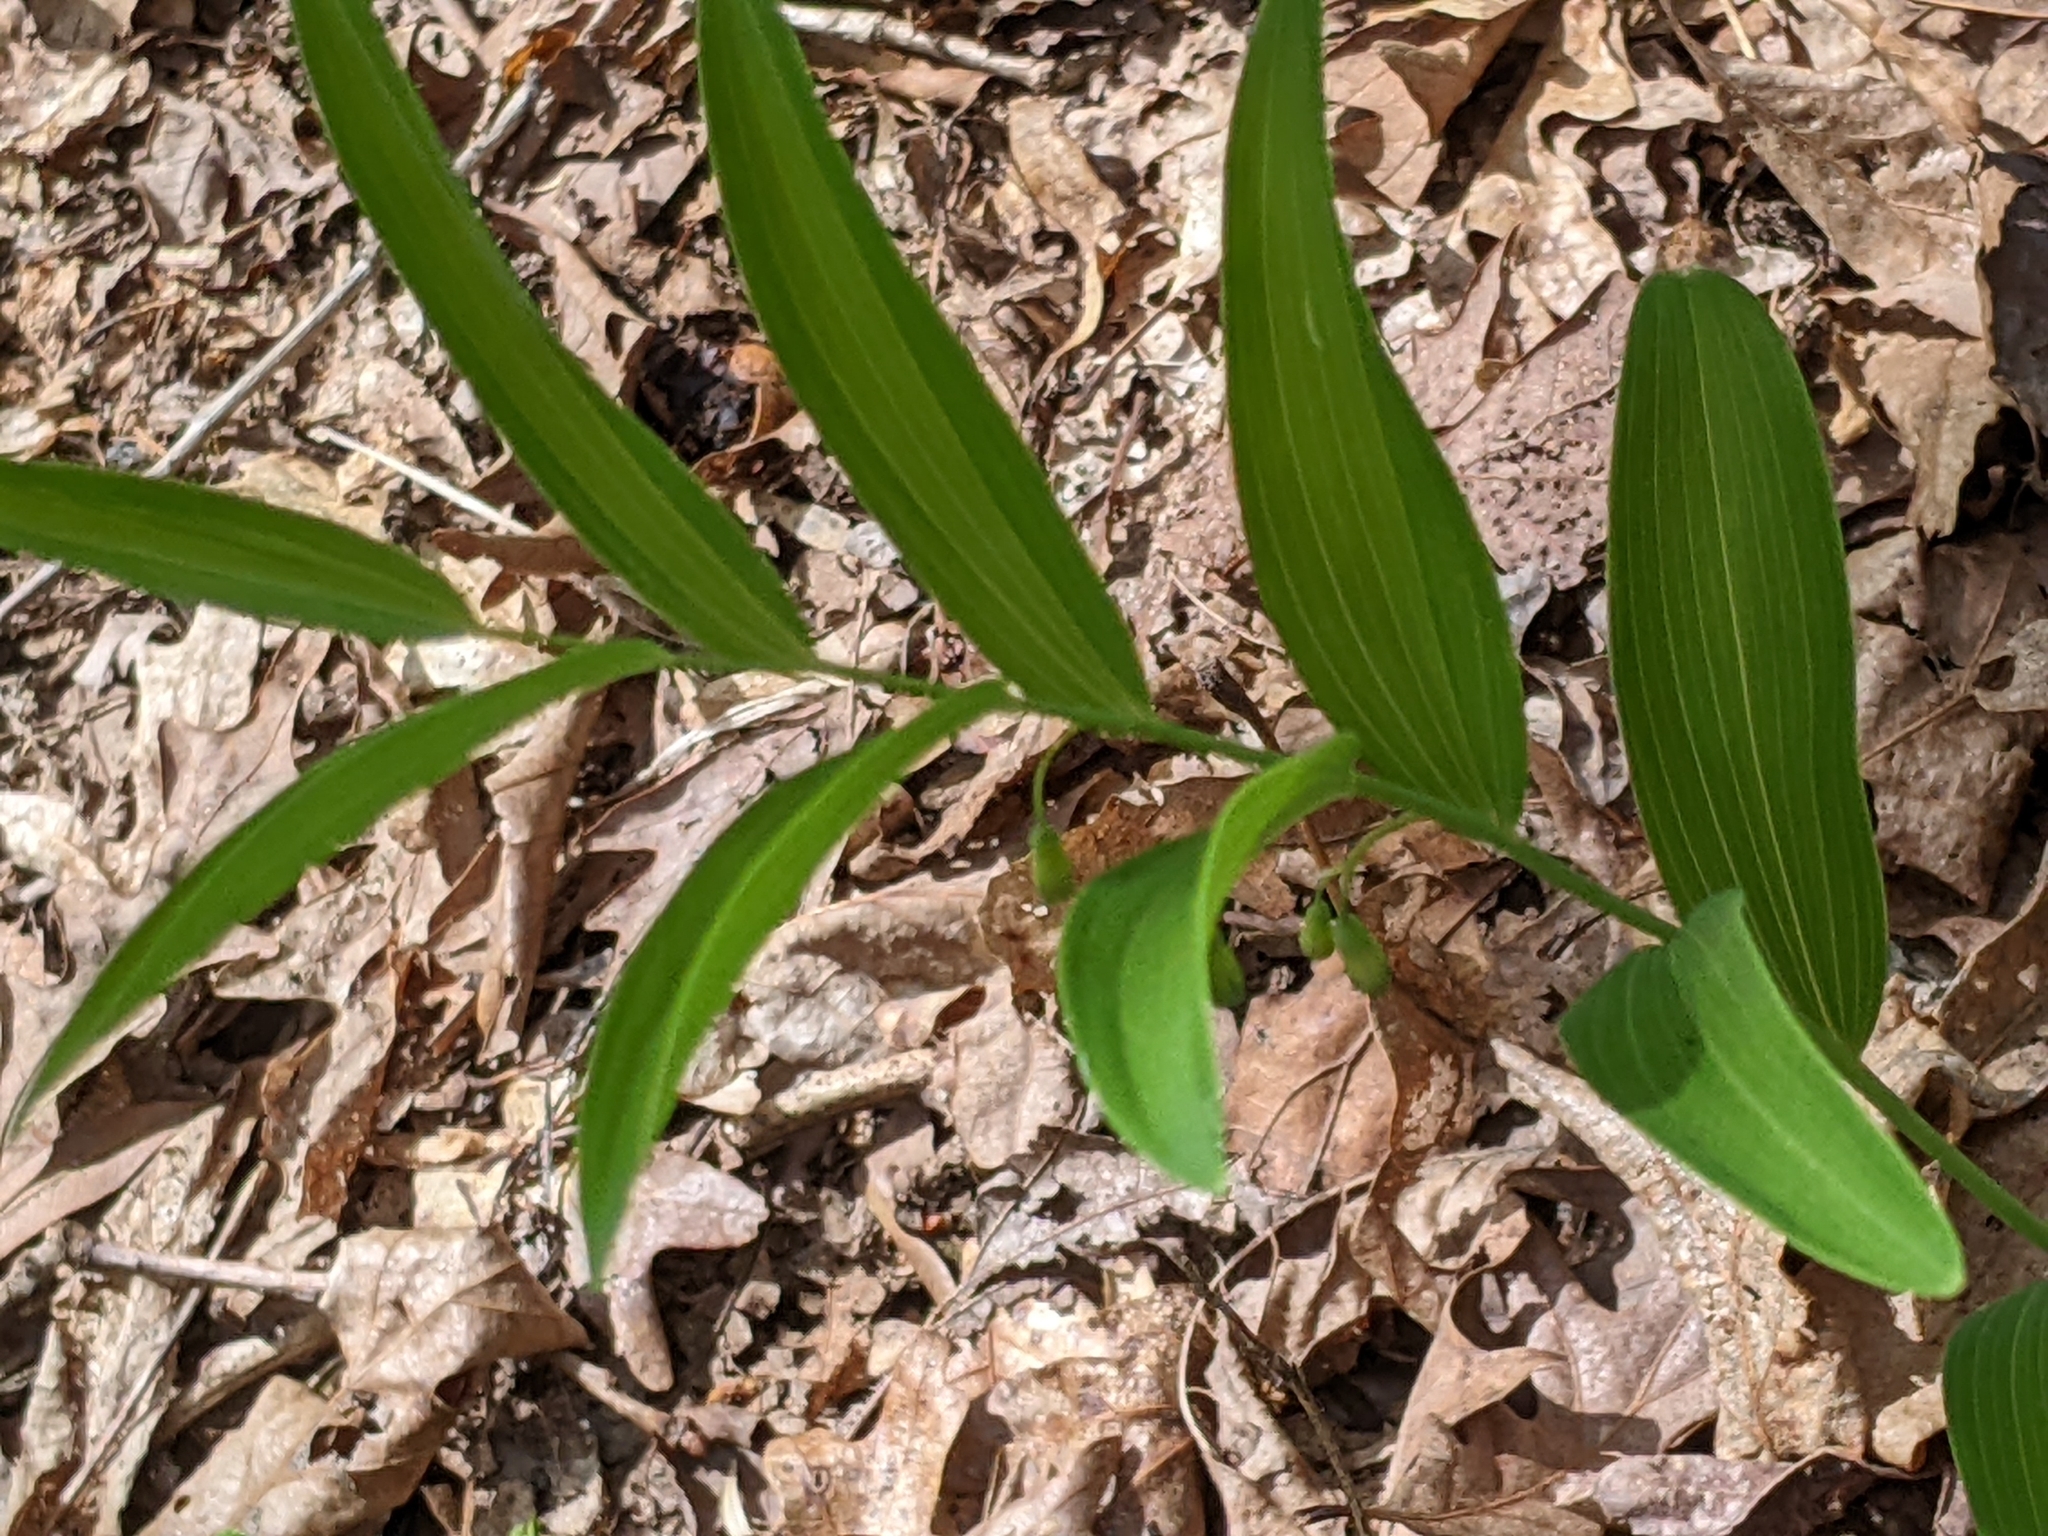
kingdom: Plantae
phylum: Tracheophyta
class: Liliopsida
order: Asparagales
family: Asparagaceae
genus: Polygonatum
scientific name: Polygonatum biflorum
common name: American solomon's-seal
